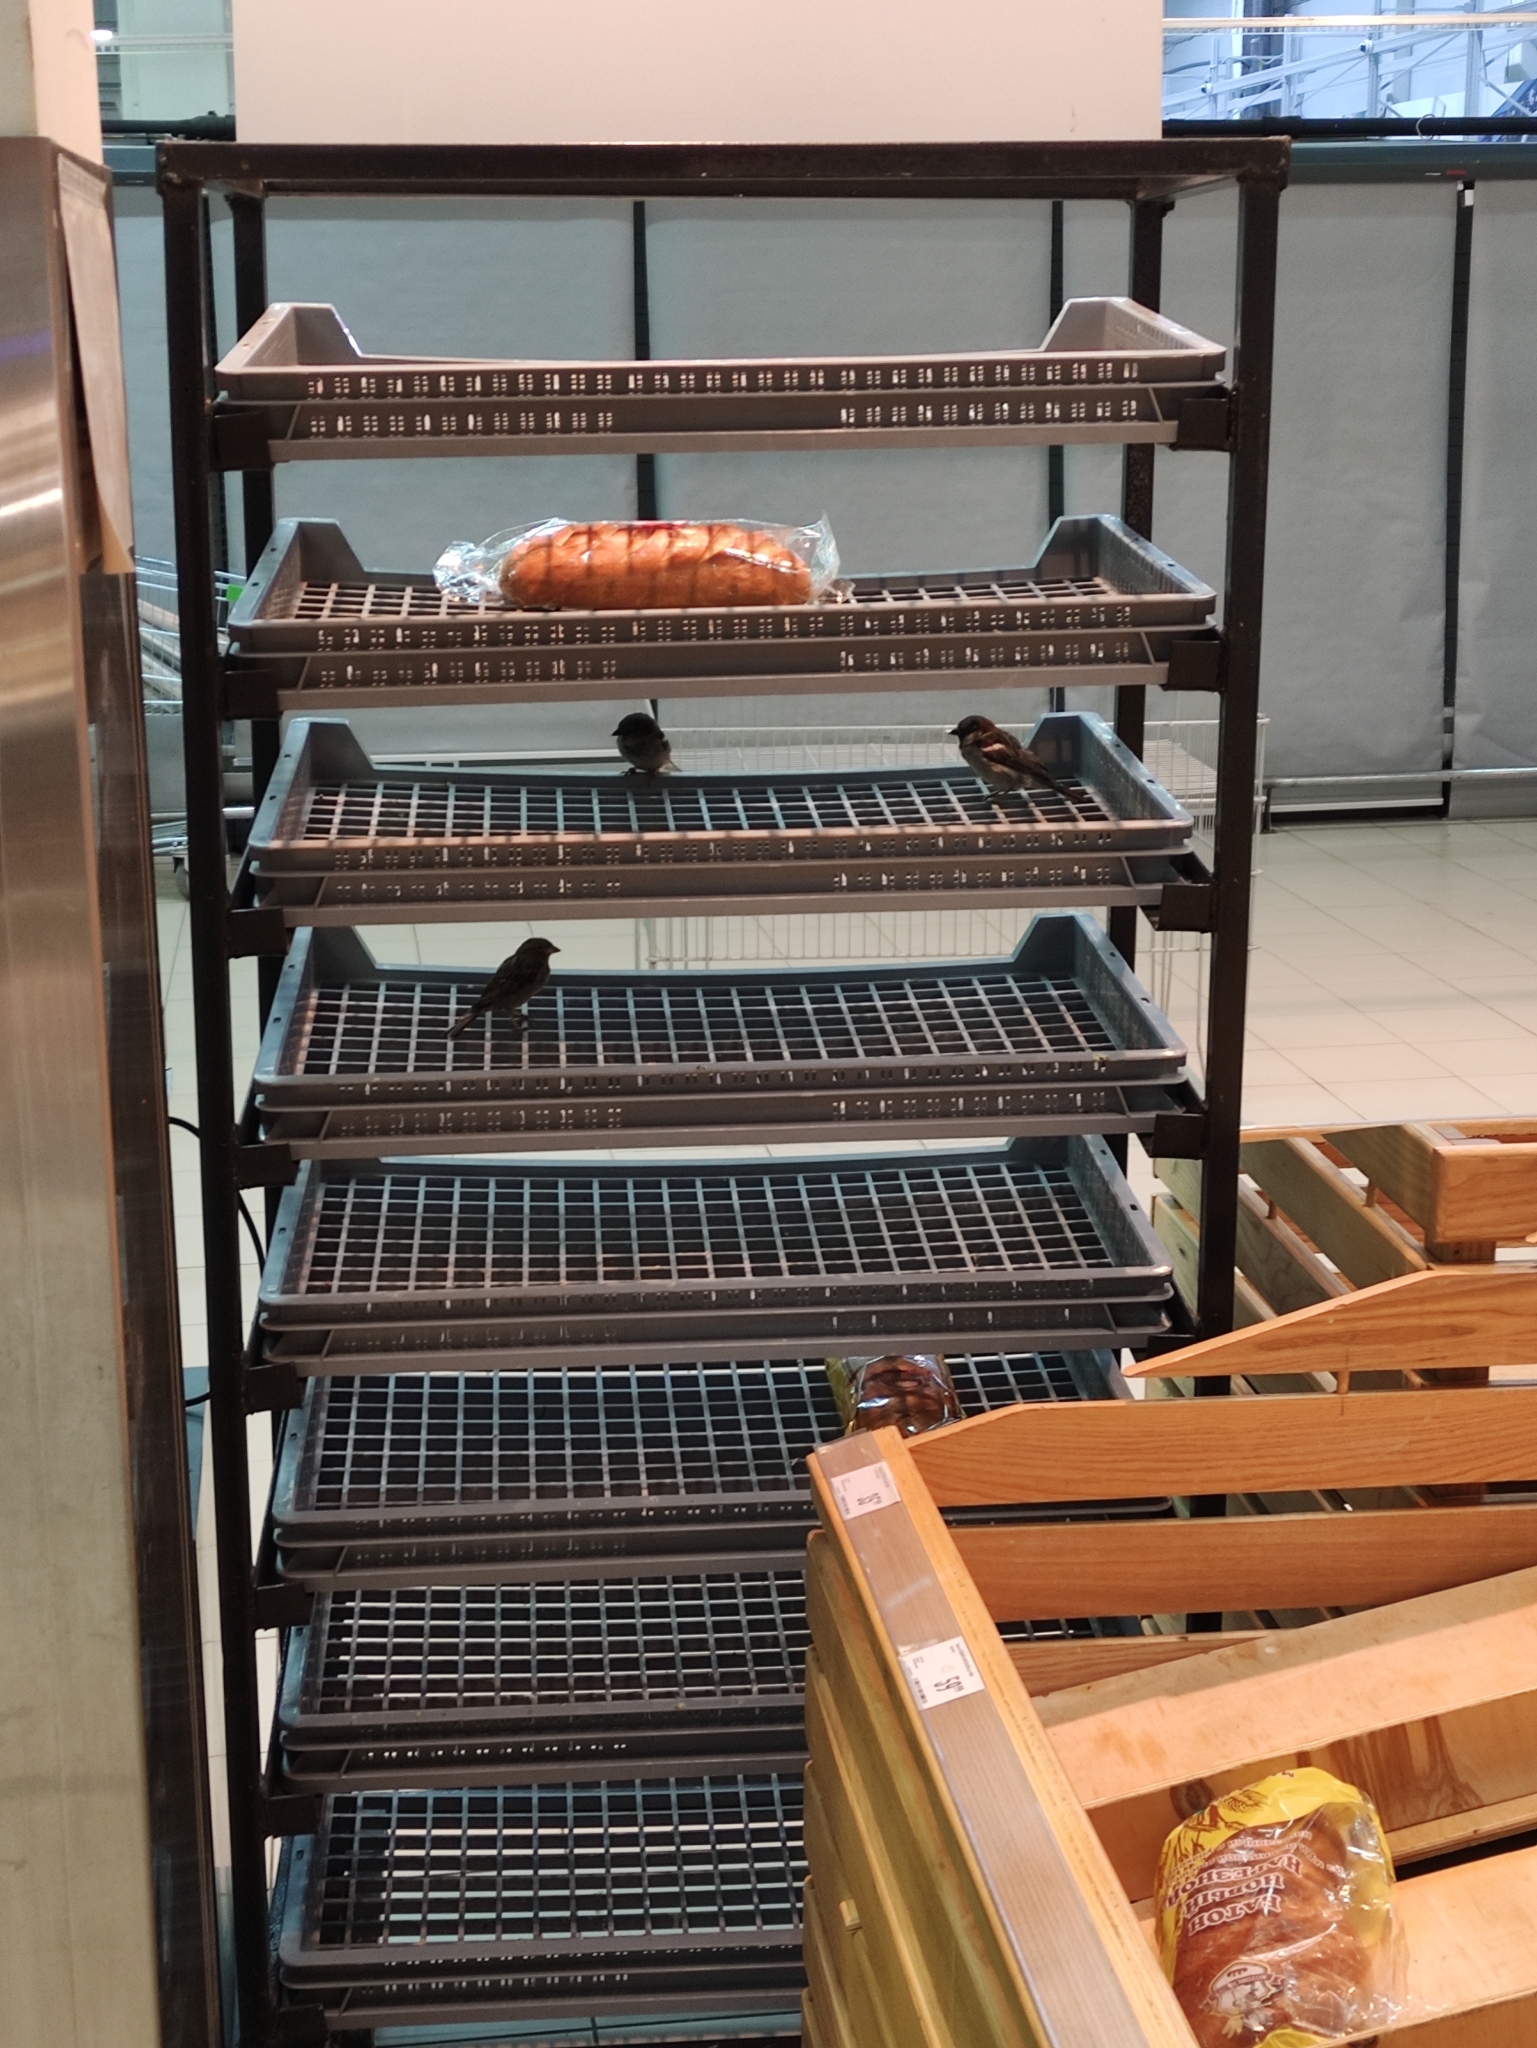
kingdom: Animalia
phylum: Chordata
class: Aves
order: Passeriformes
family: Passeridae
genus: Passer
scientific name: Passer domesticus
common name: House sparrow
